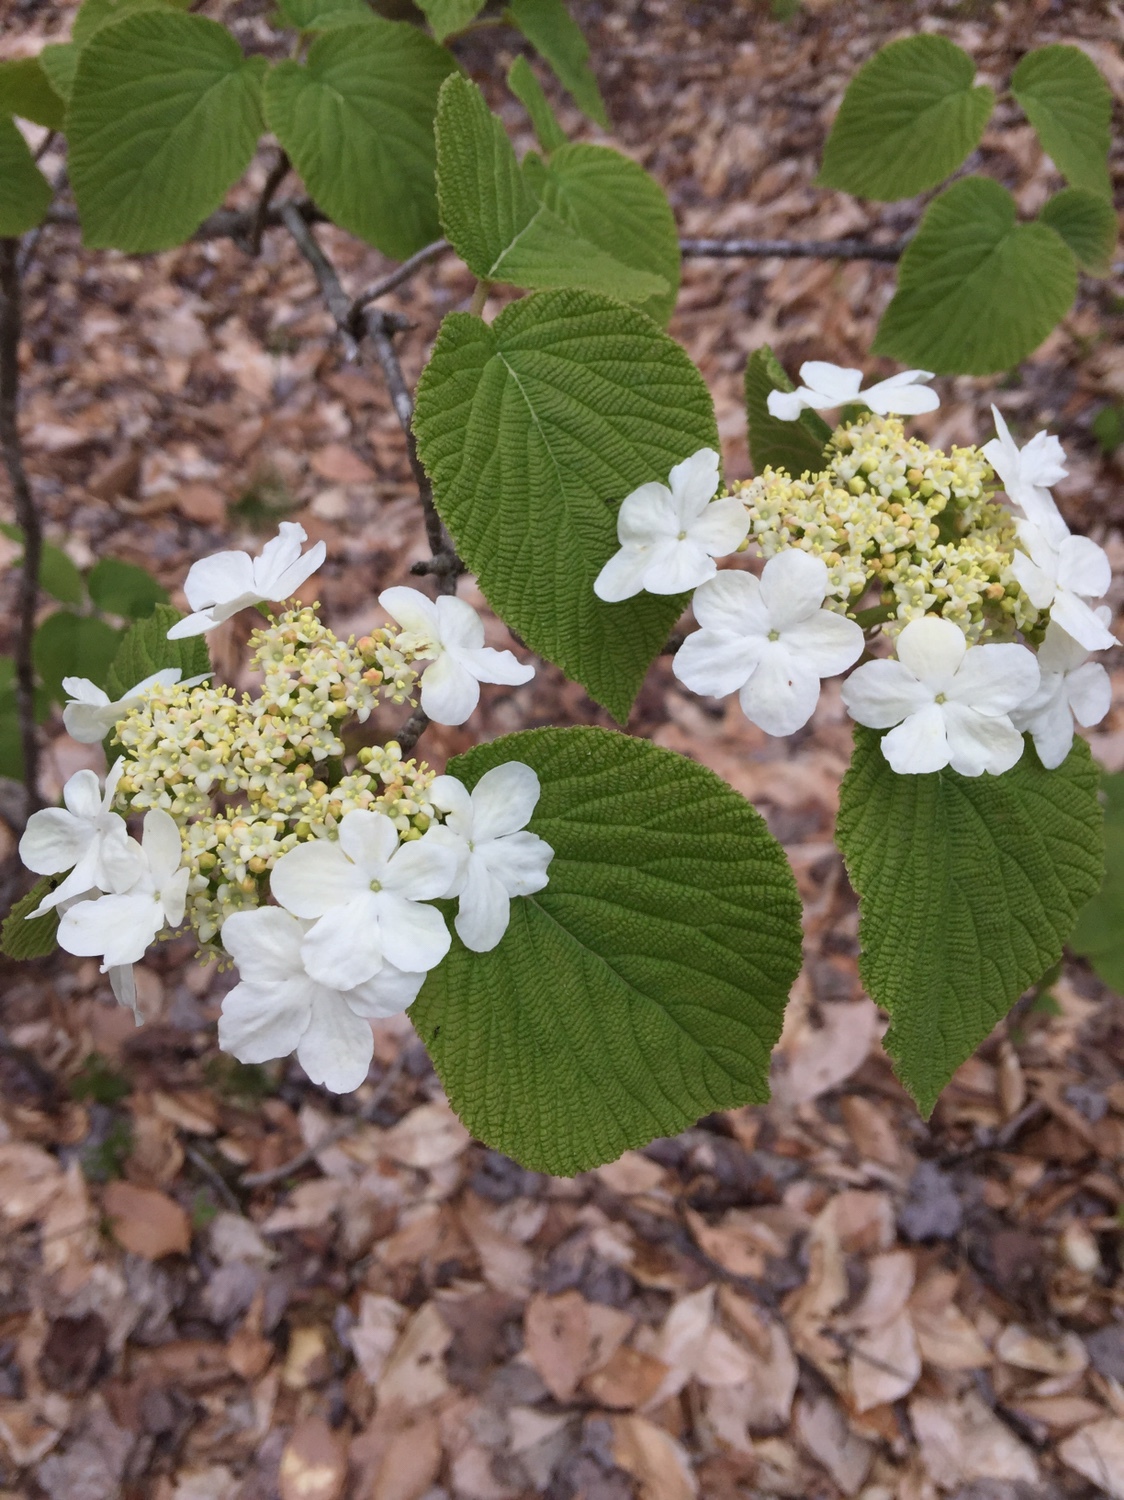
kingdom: Plantae
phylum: Tracheophyta
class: Magnoliopsida
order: Dipsacales
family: Viburnaceae
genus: Viburnum
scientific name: Viburnum lantanoides
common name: Hobblebush
